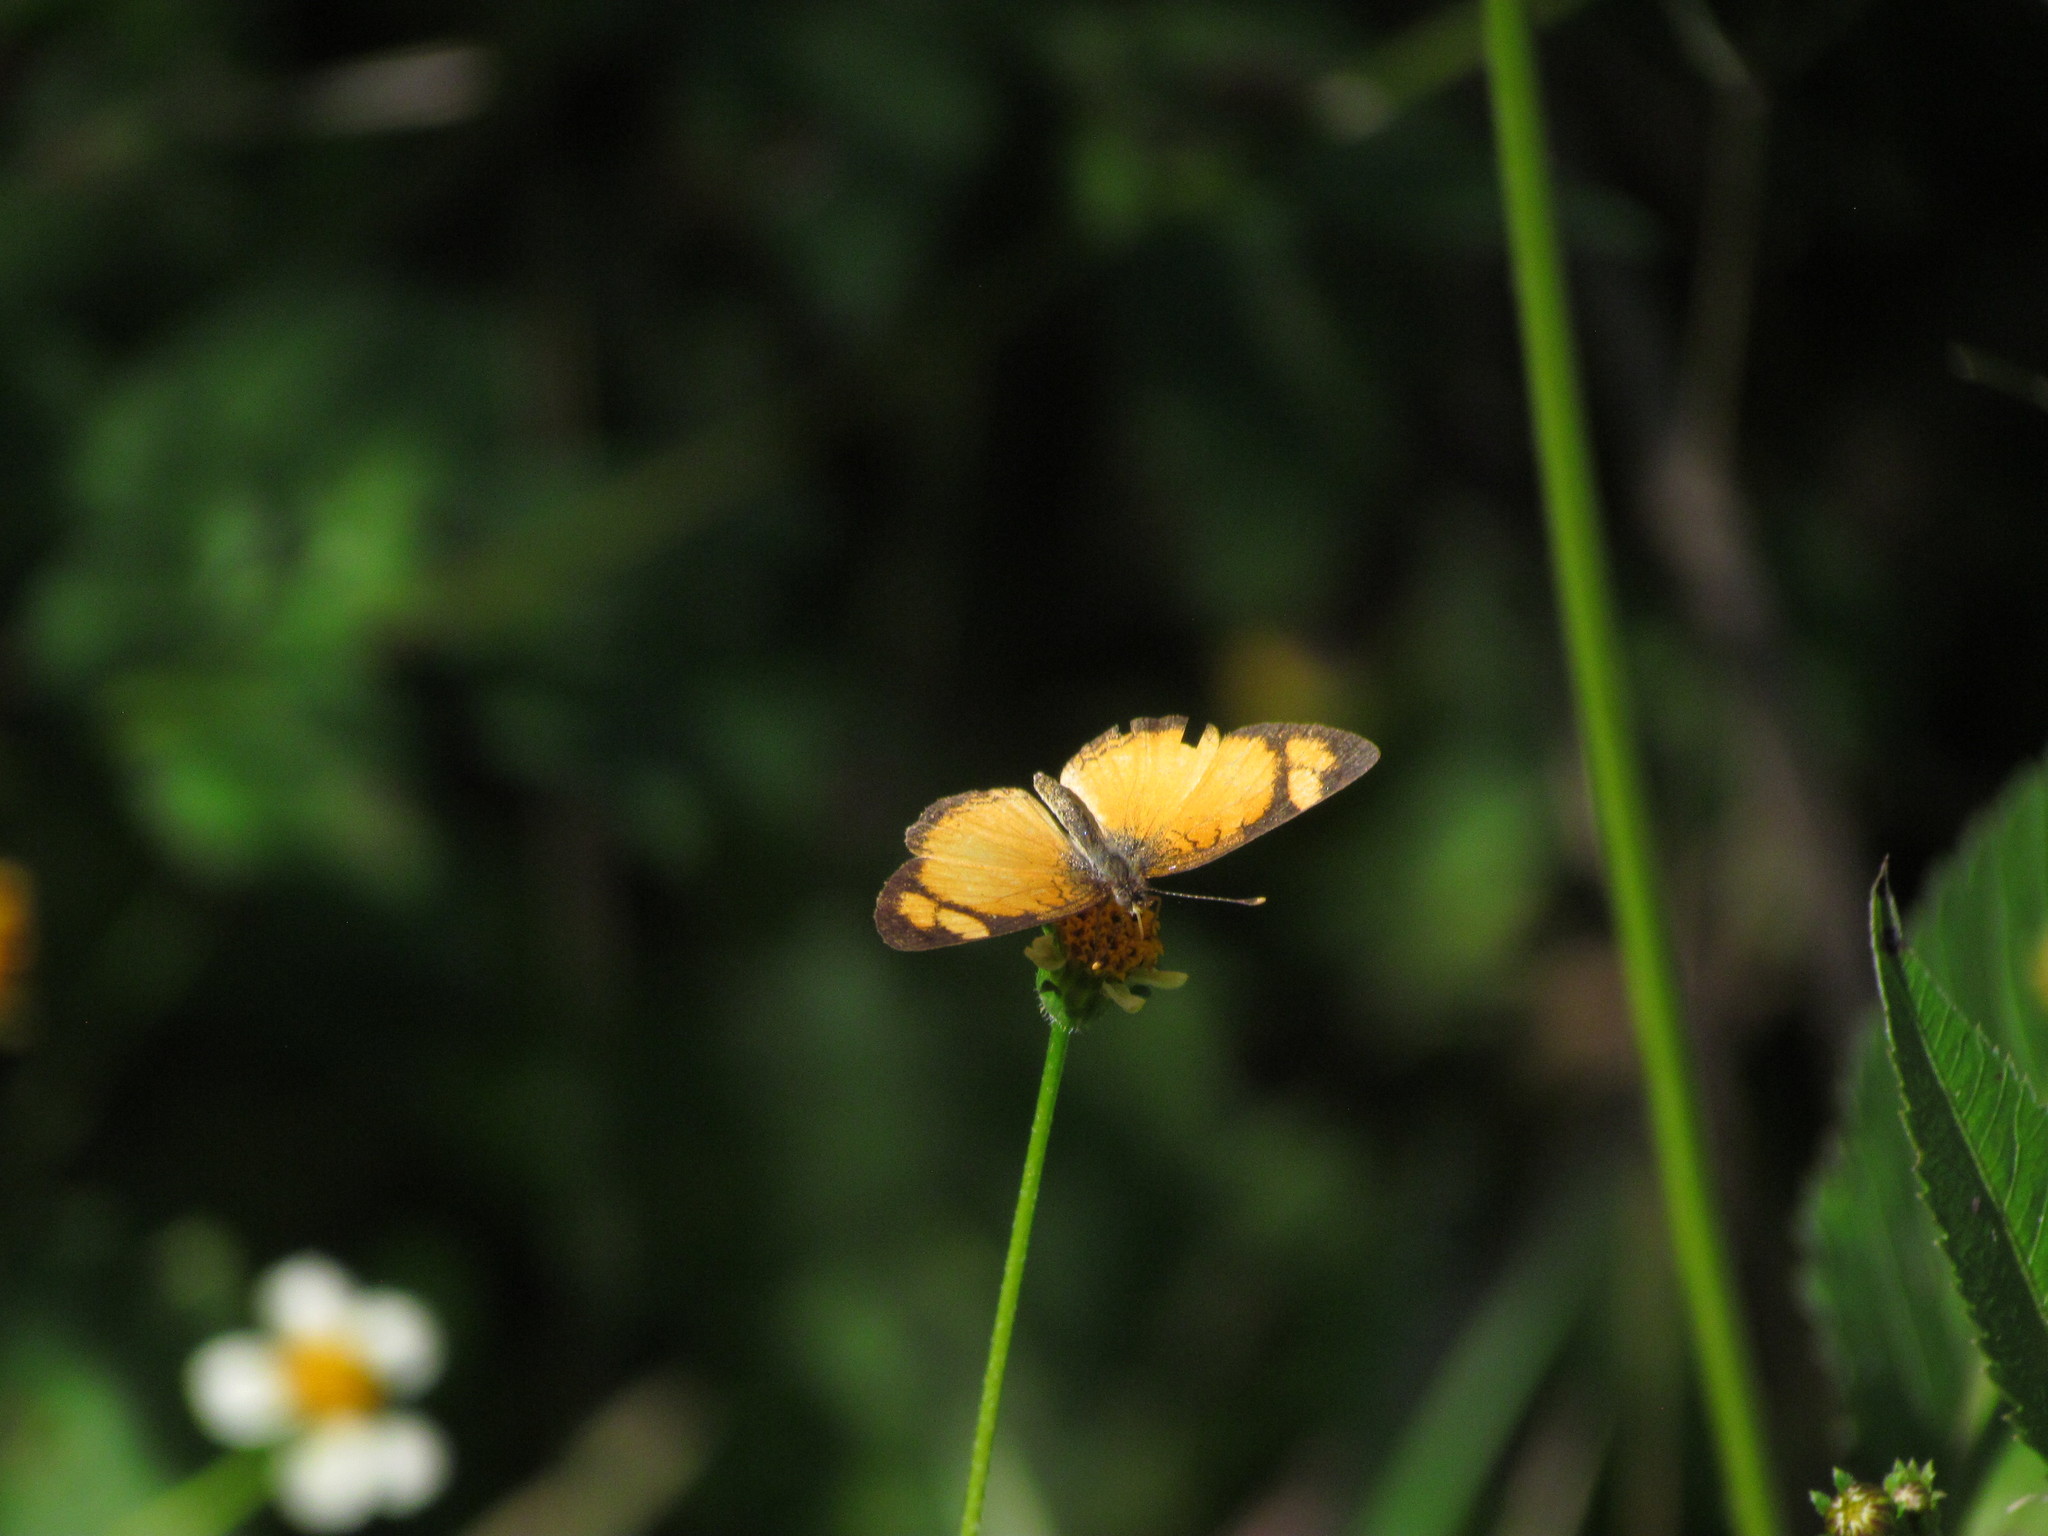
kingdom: Animalia
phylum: Arthropoda
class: Insecta
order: Lepidoptera
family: Nymphalidae
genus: Tegosa
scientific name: Tegosa claudina
